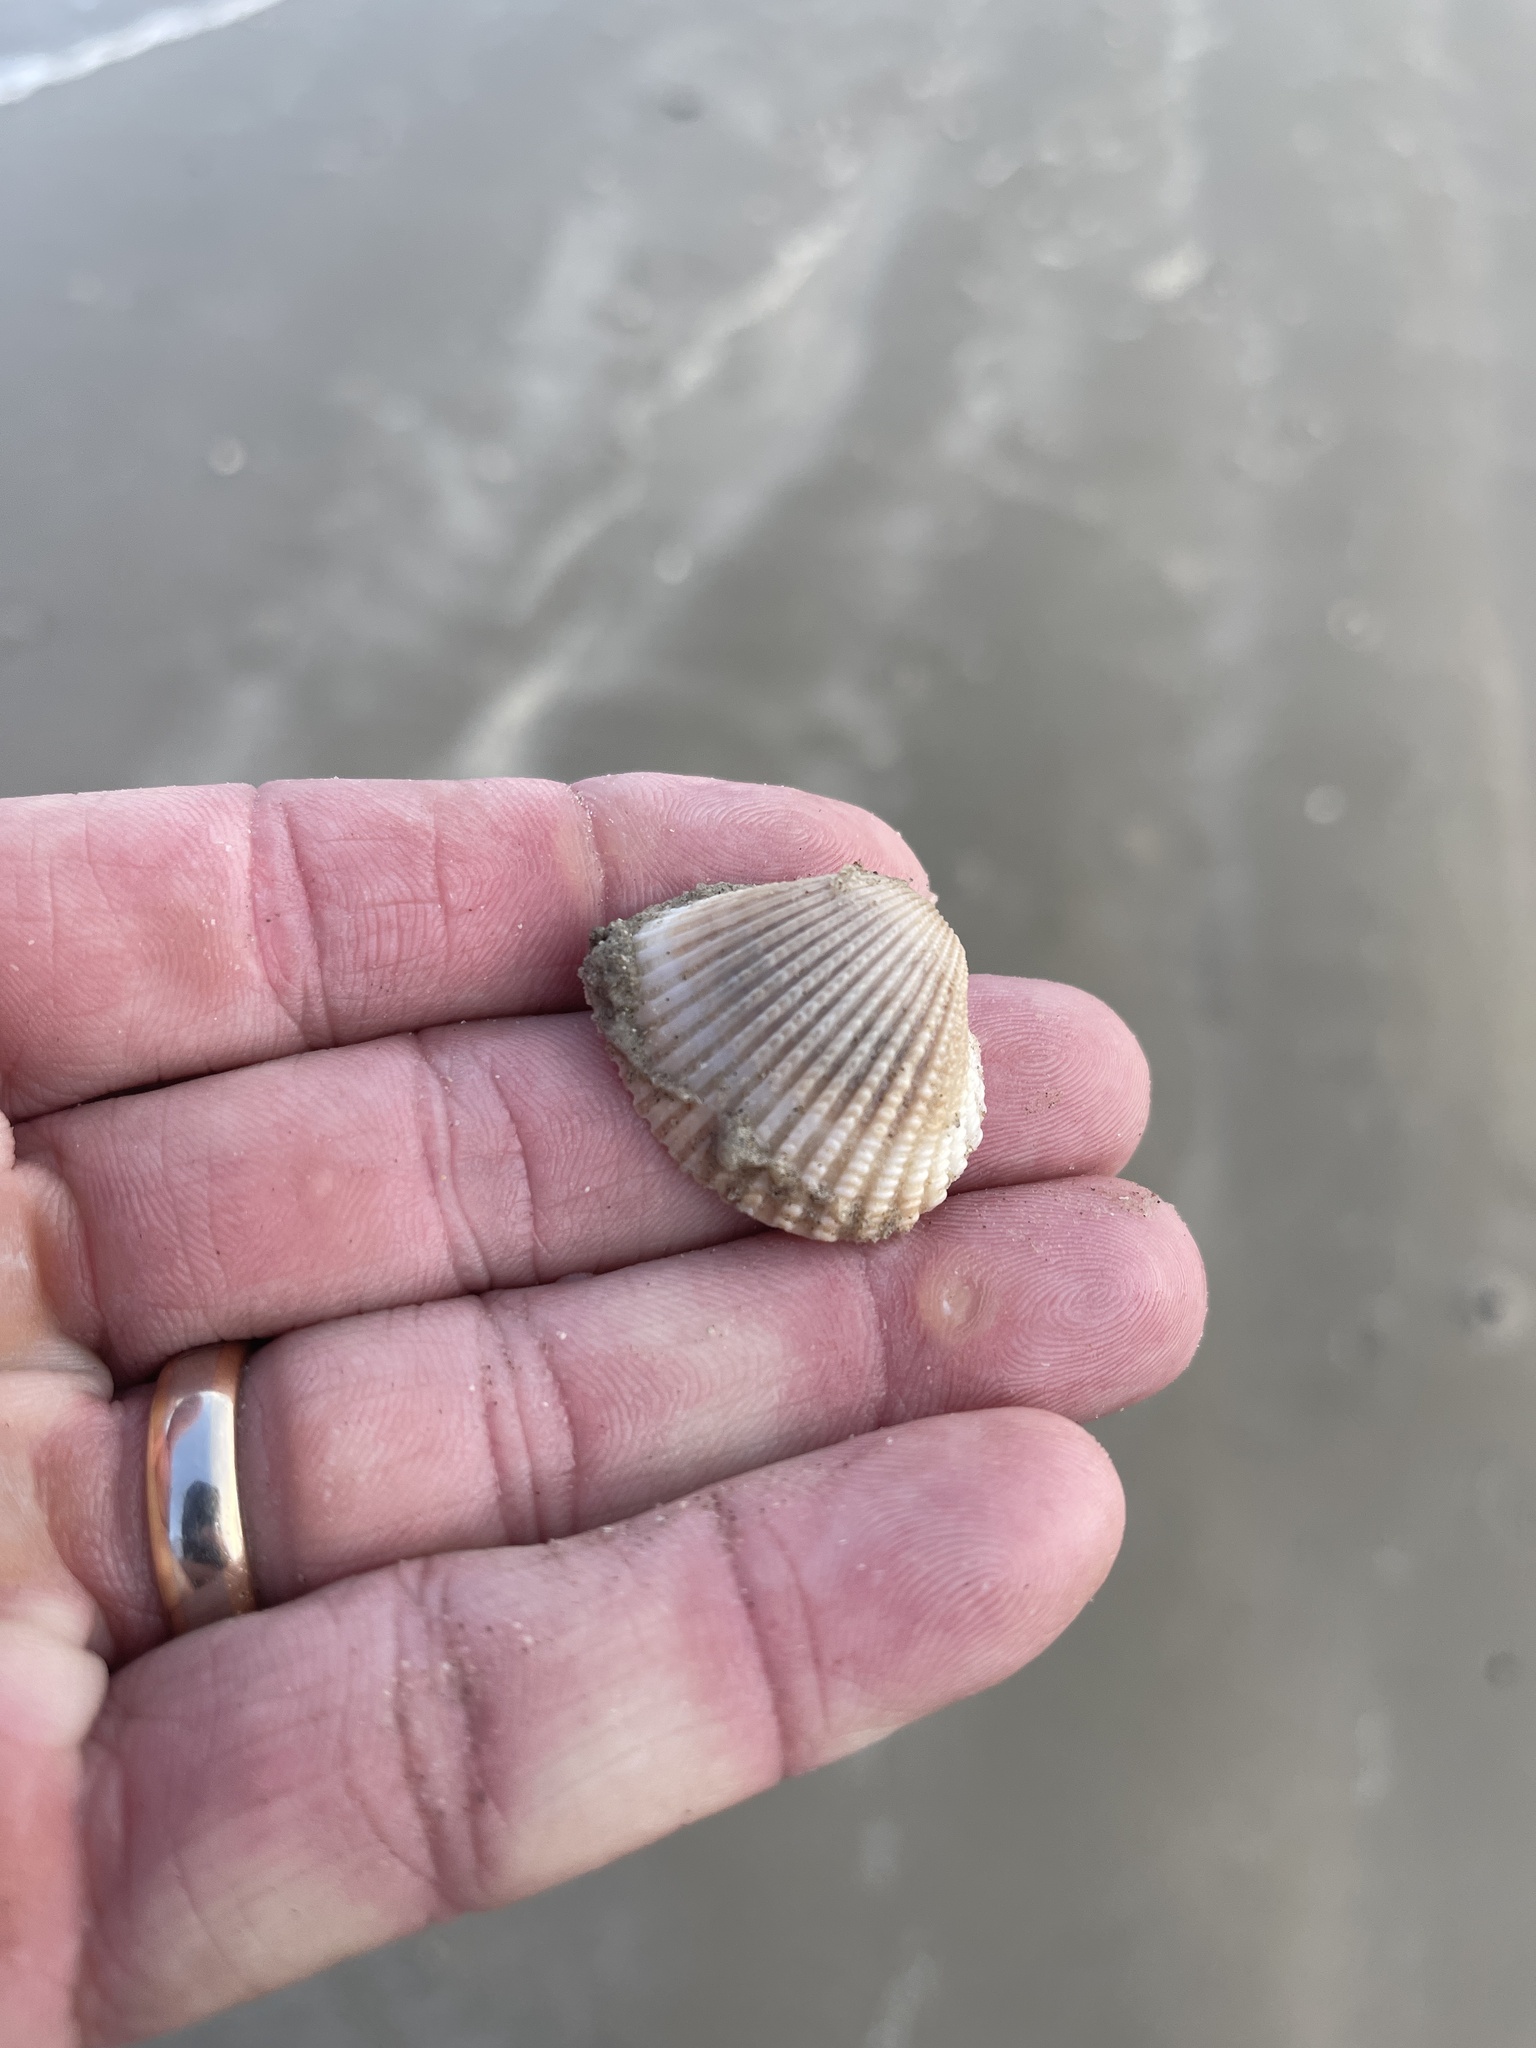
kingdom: Animalia
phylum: Mollusca
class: Bivalvia
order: Arcida
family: Arcidae
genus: Anadara
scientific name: Anadara brasiliana
